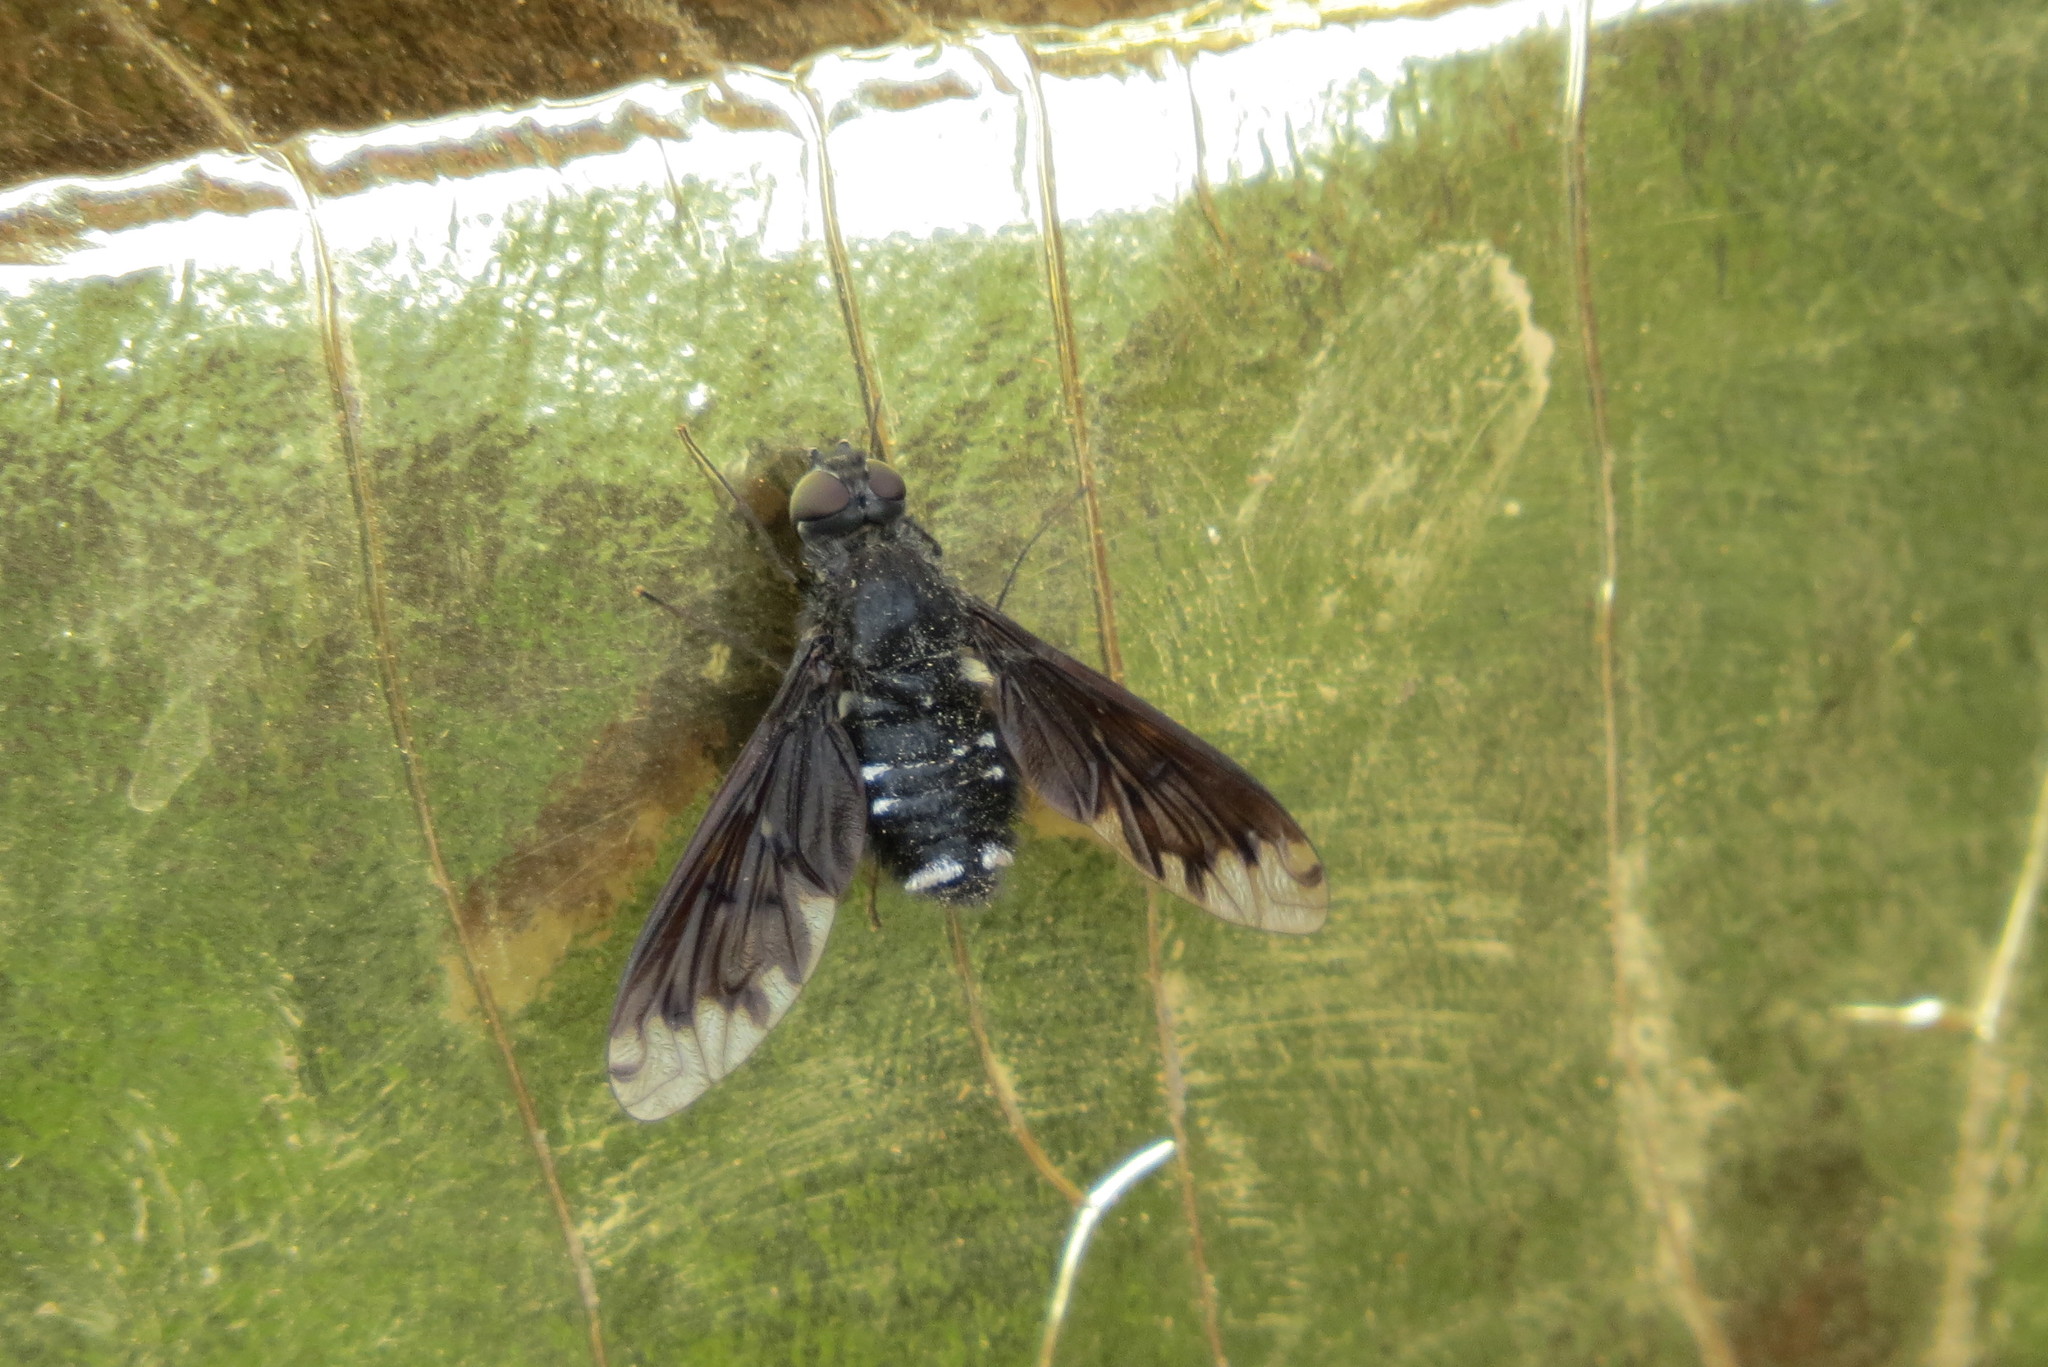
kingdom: Animalia
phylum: Arthropoda
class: Insecta
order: Diptera
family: Bombyliidae
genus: Anthrax
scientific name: Anthrax anthrax
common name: Anthracite bee-fly
